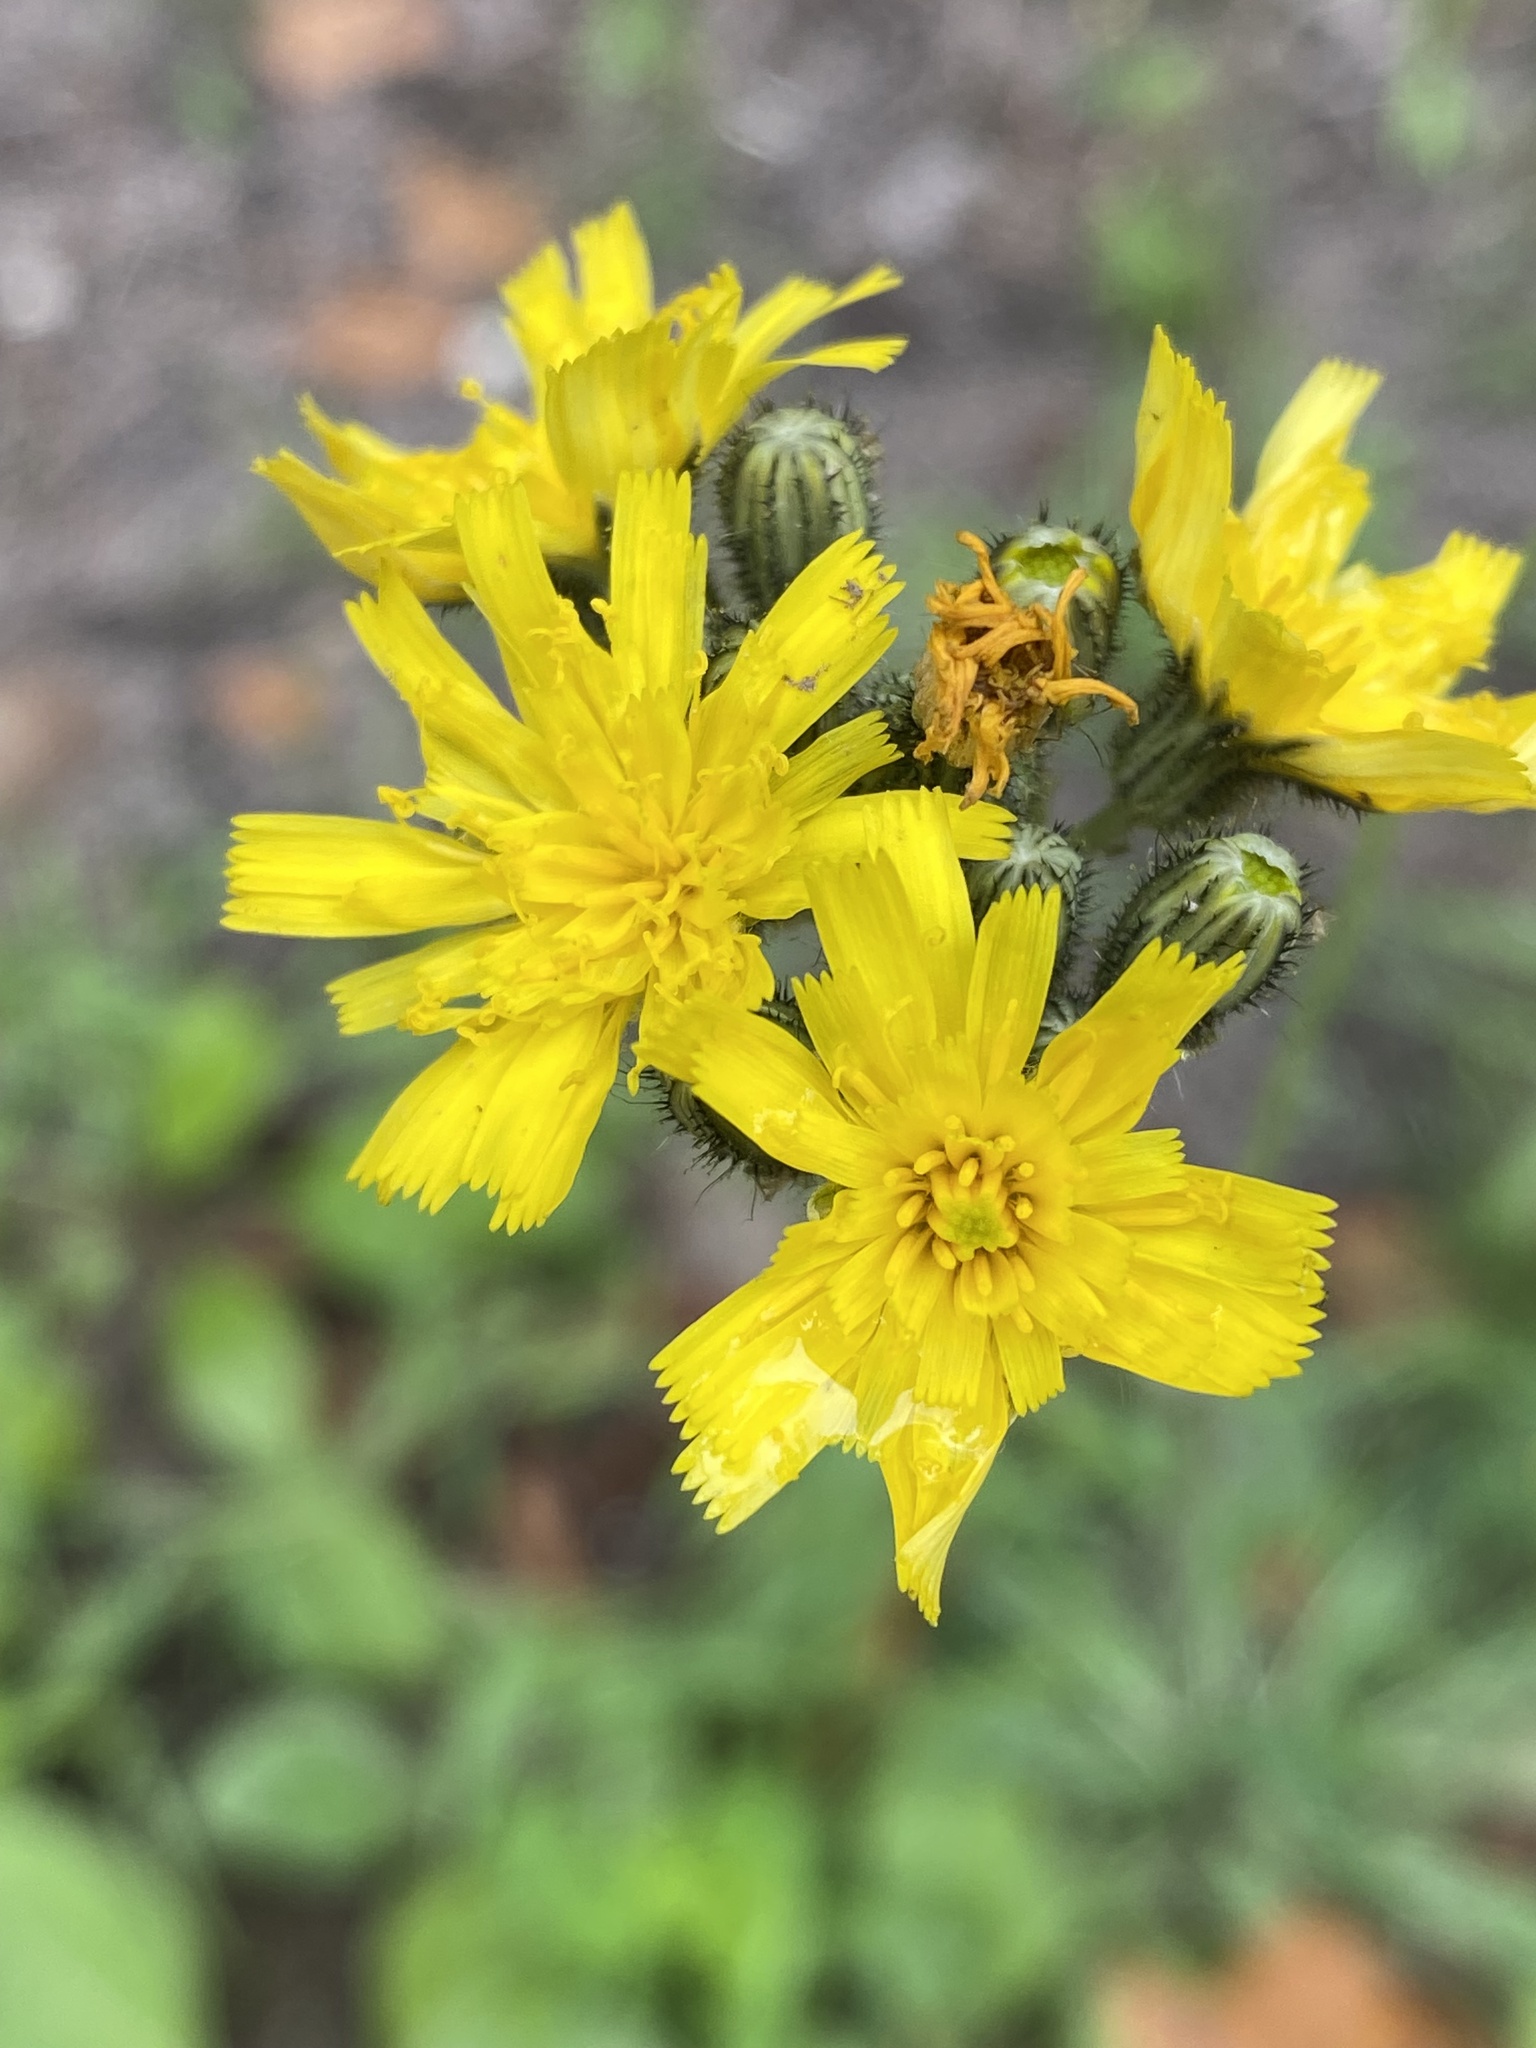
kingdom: Plantae
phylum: Tracheophyta
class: Magnoliopsida
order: Asterales
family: Asteraceae
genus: Pilosella
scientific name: Pilosella caespitosa
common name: Yellow fox-and-cubs
